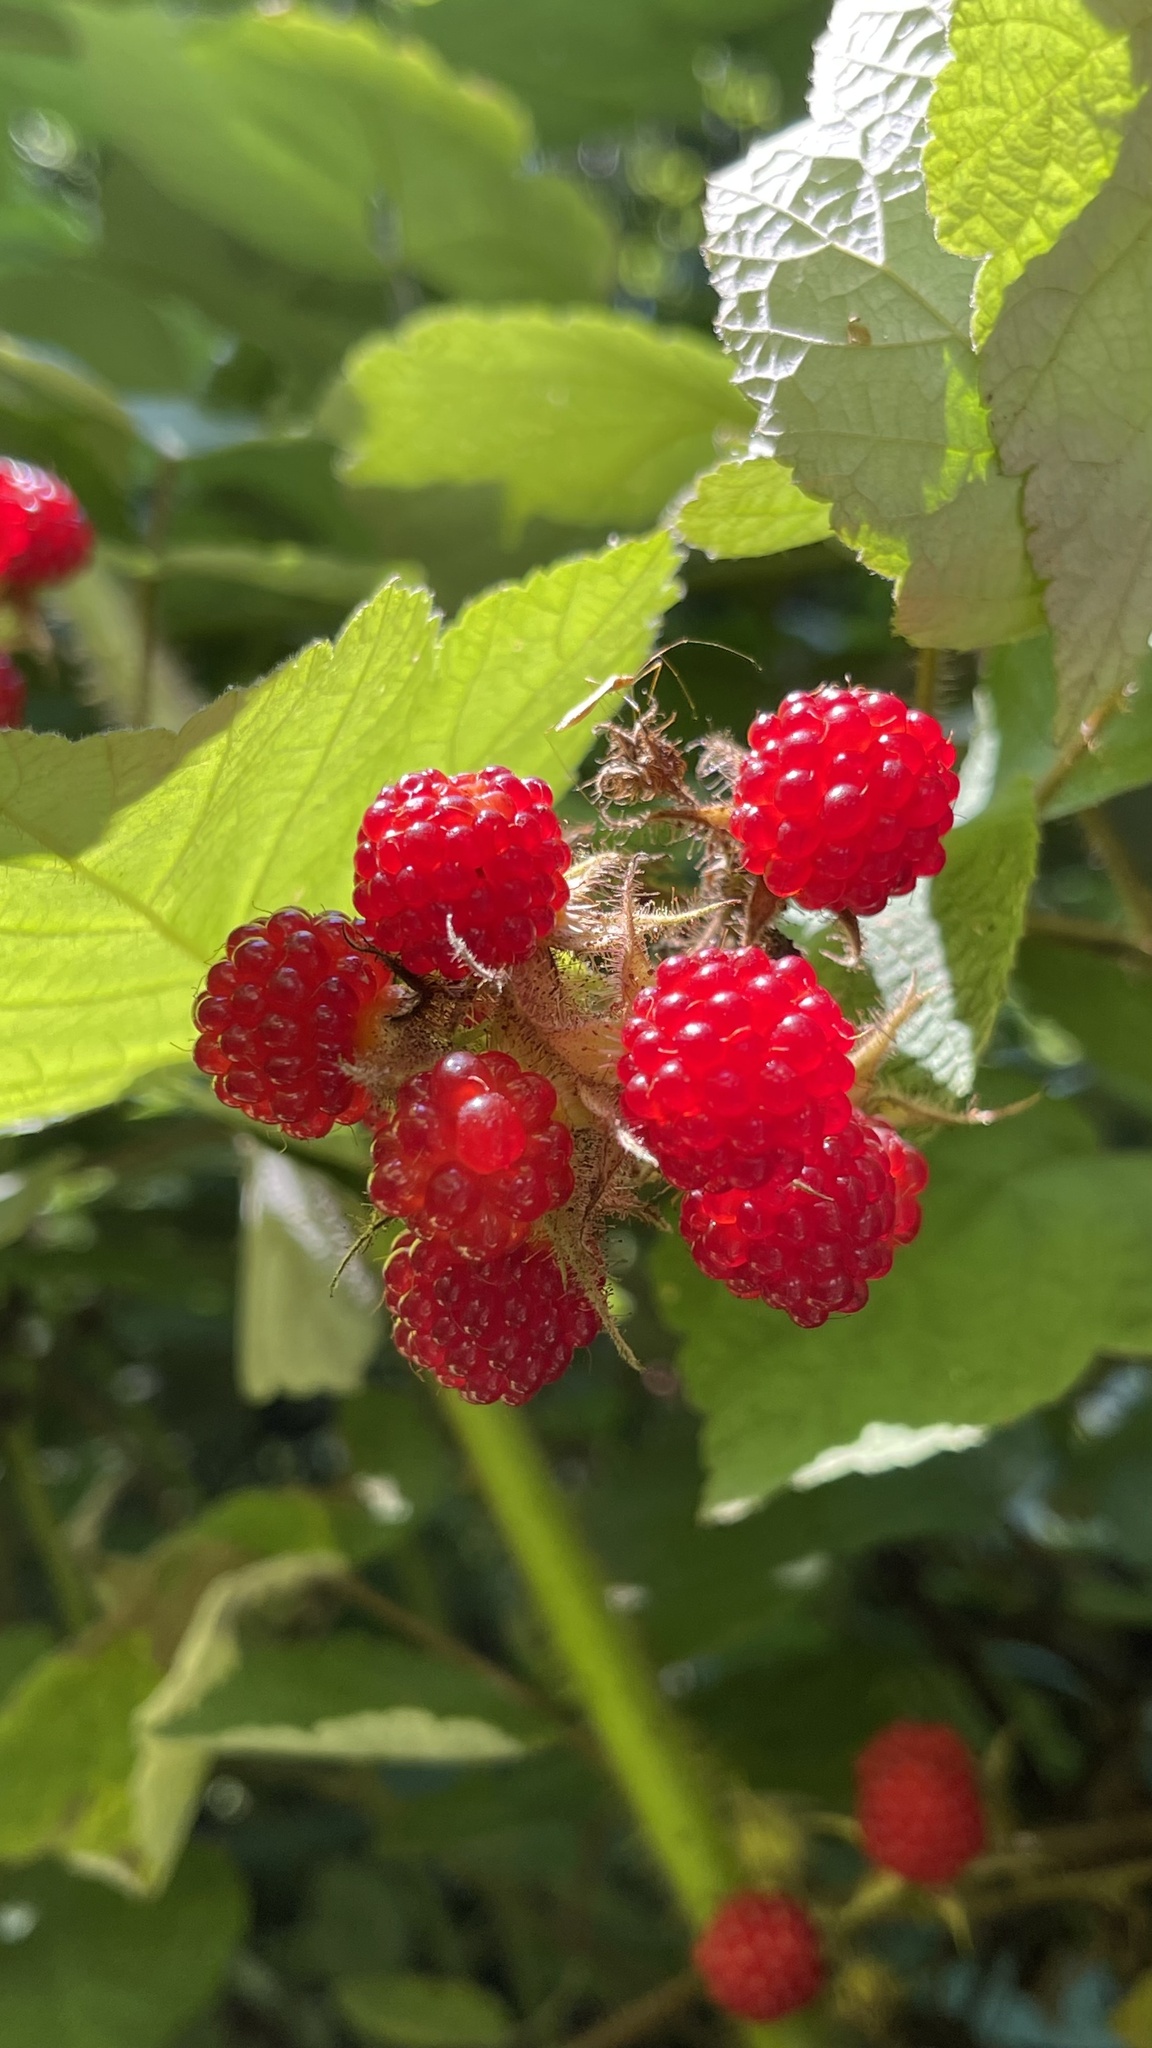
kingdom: Plantae
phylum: Tracheophyta
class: Magnoliopsida
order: Rosales
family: Rosaceae
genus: Rubus
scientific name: Rubus phoenicolasius
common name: Japanese wineberry
